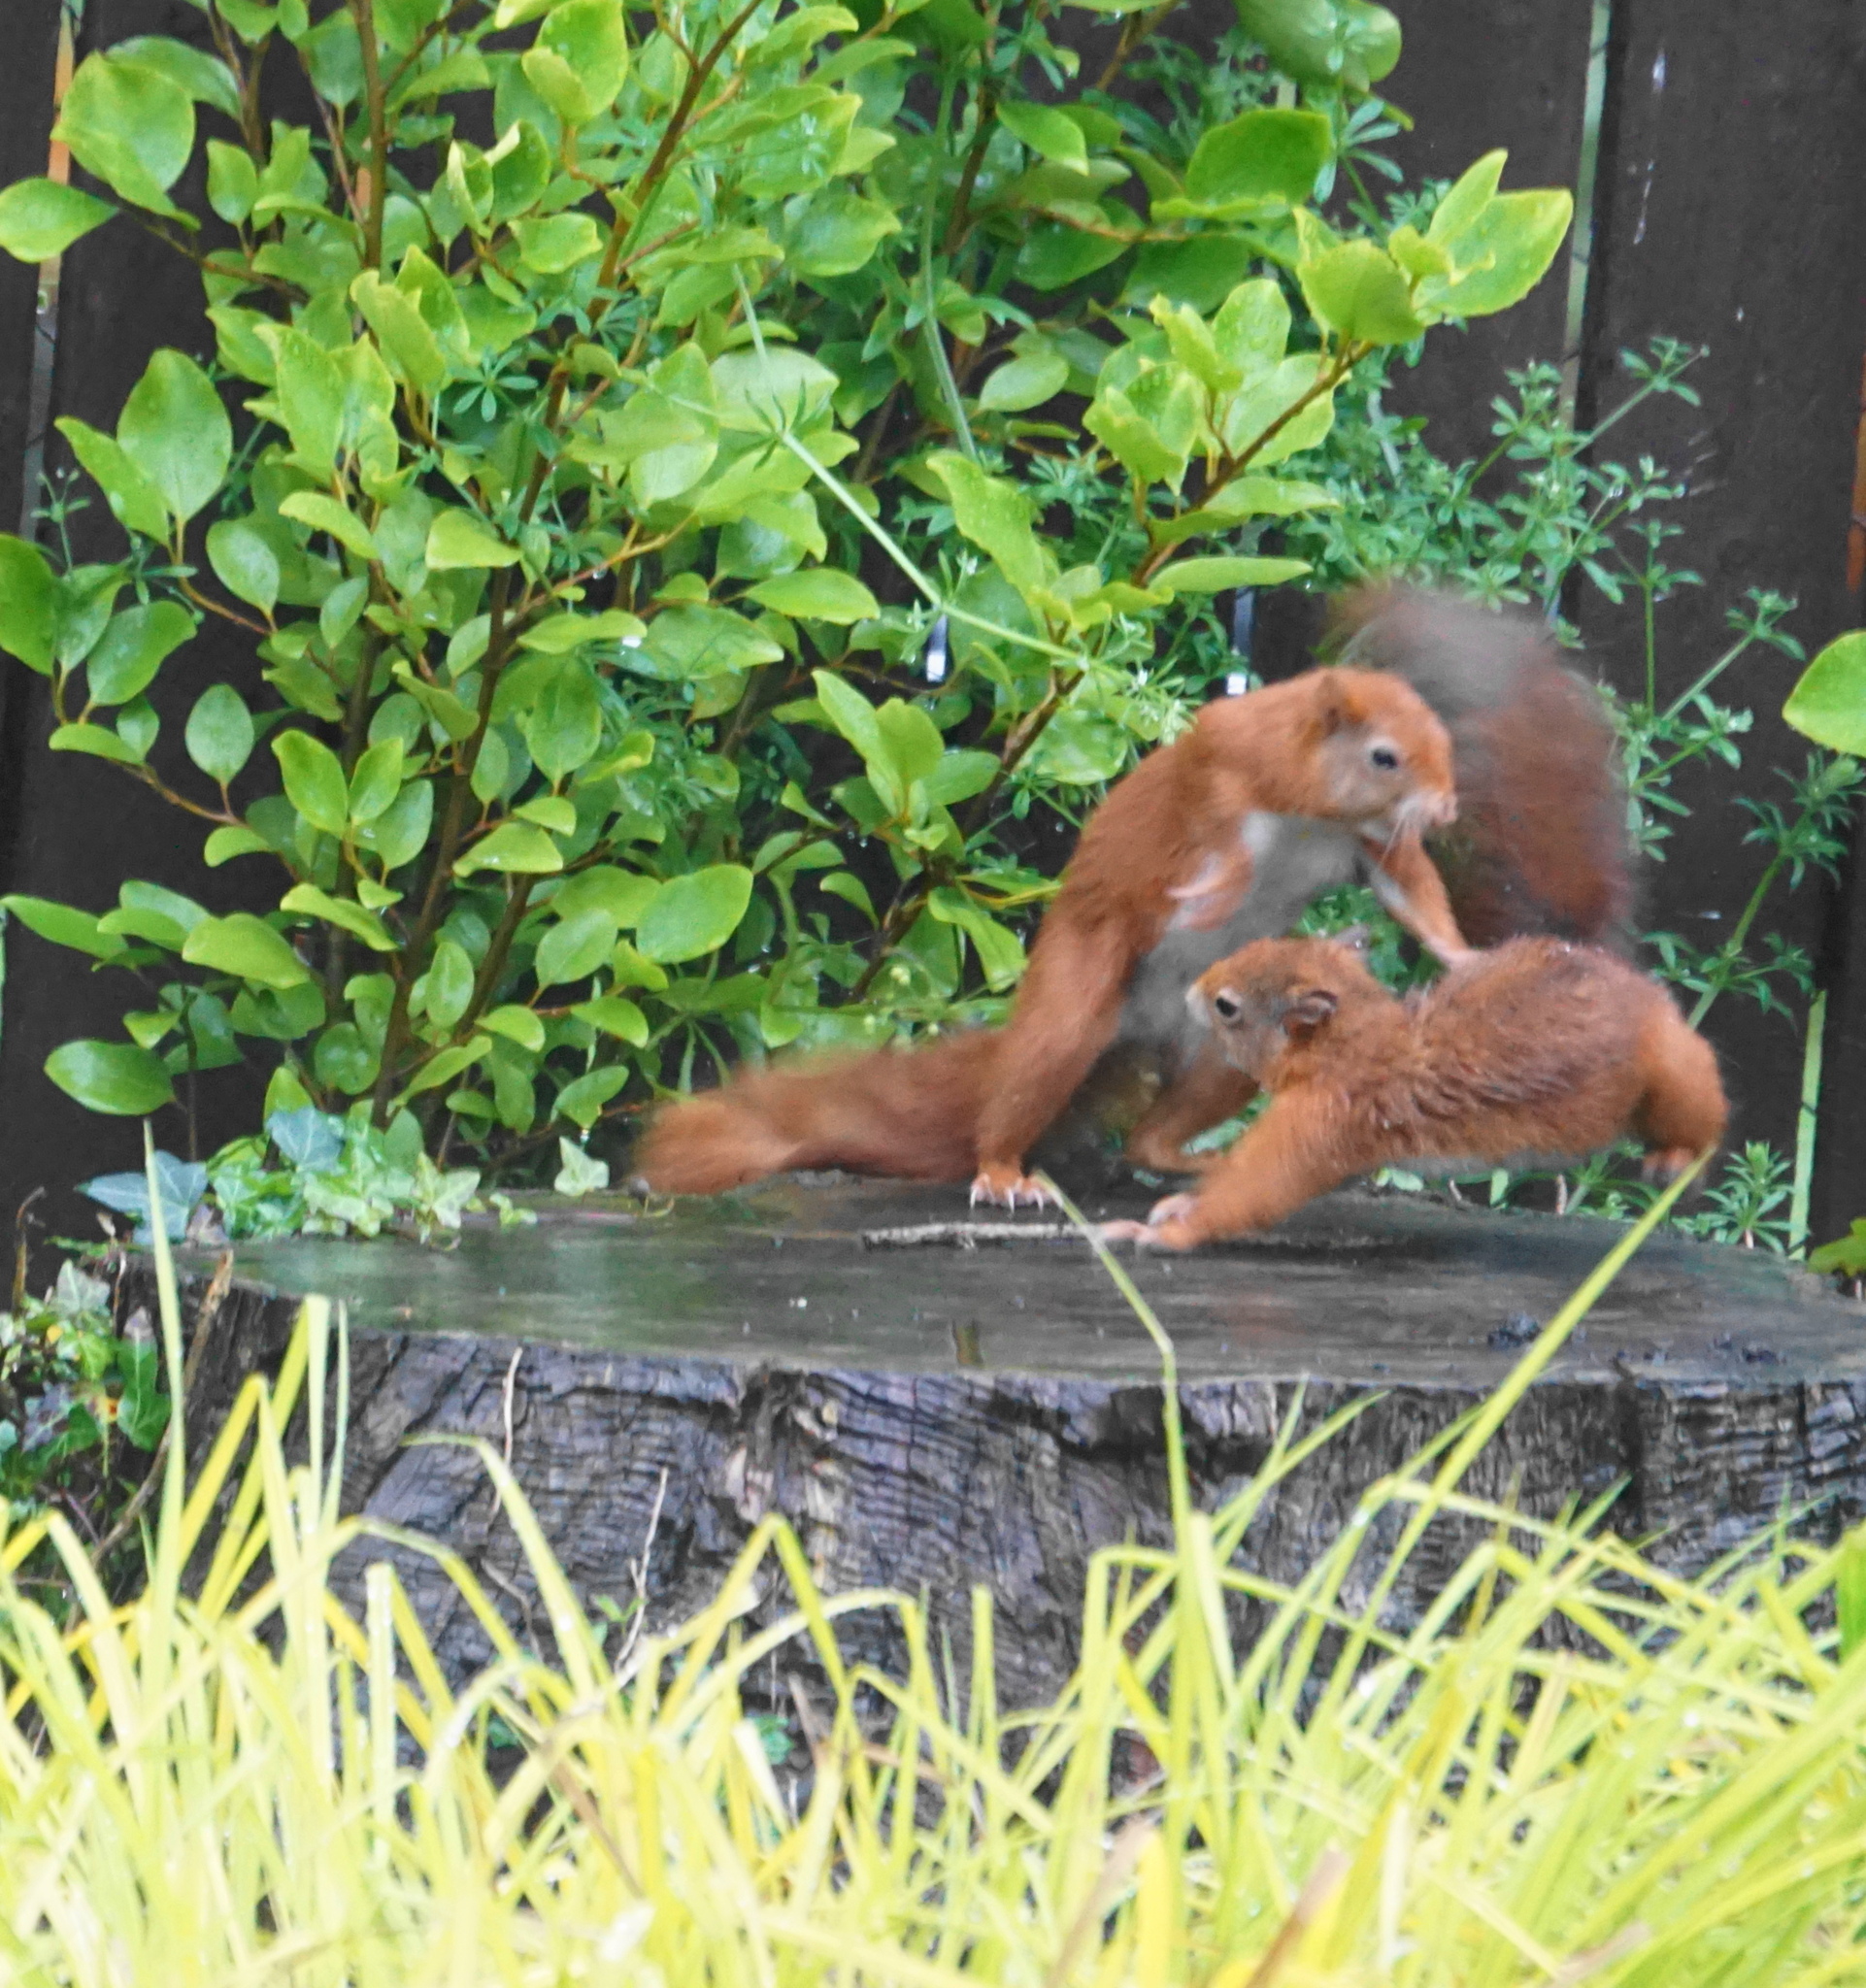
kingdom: Animalia
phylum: Chordata
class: Mammalia
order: Rodentia
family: Sciuridae
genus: Sciurus
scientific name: Sciurus vulgaris
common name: Eurasian red squirrel
